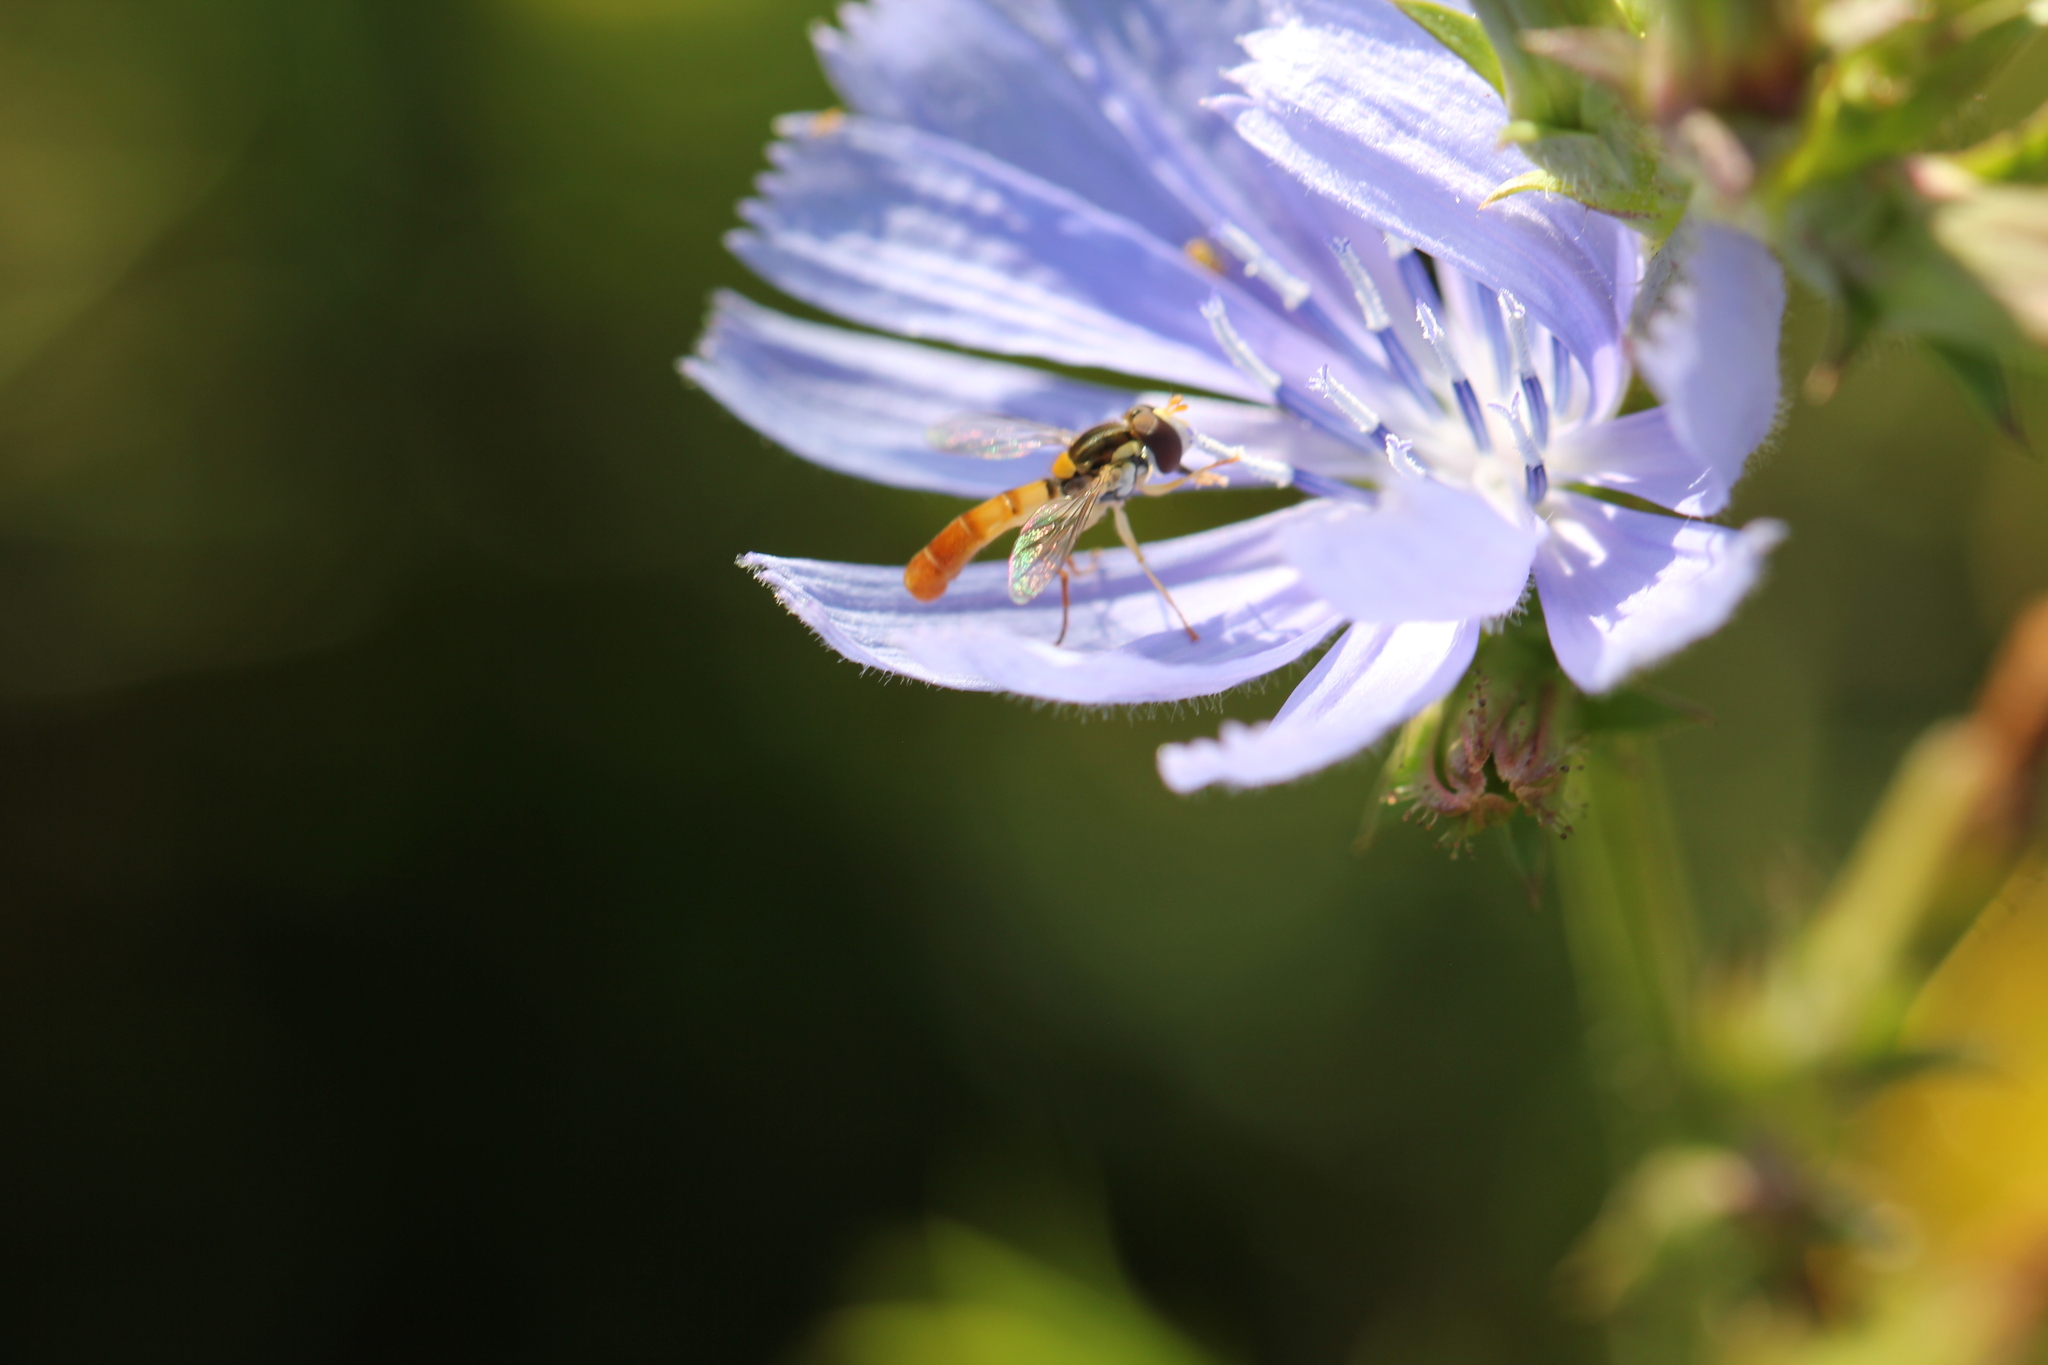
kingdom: Animalia
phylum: Arthropoda
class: Insecta
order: Diptera
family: Syrphidae
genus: Sphaerophoria
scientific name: Sphaerophoria contigua
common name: Tufted globetail
